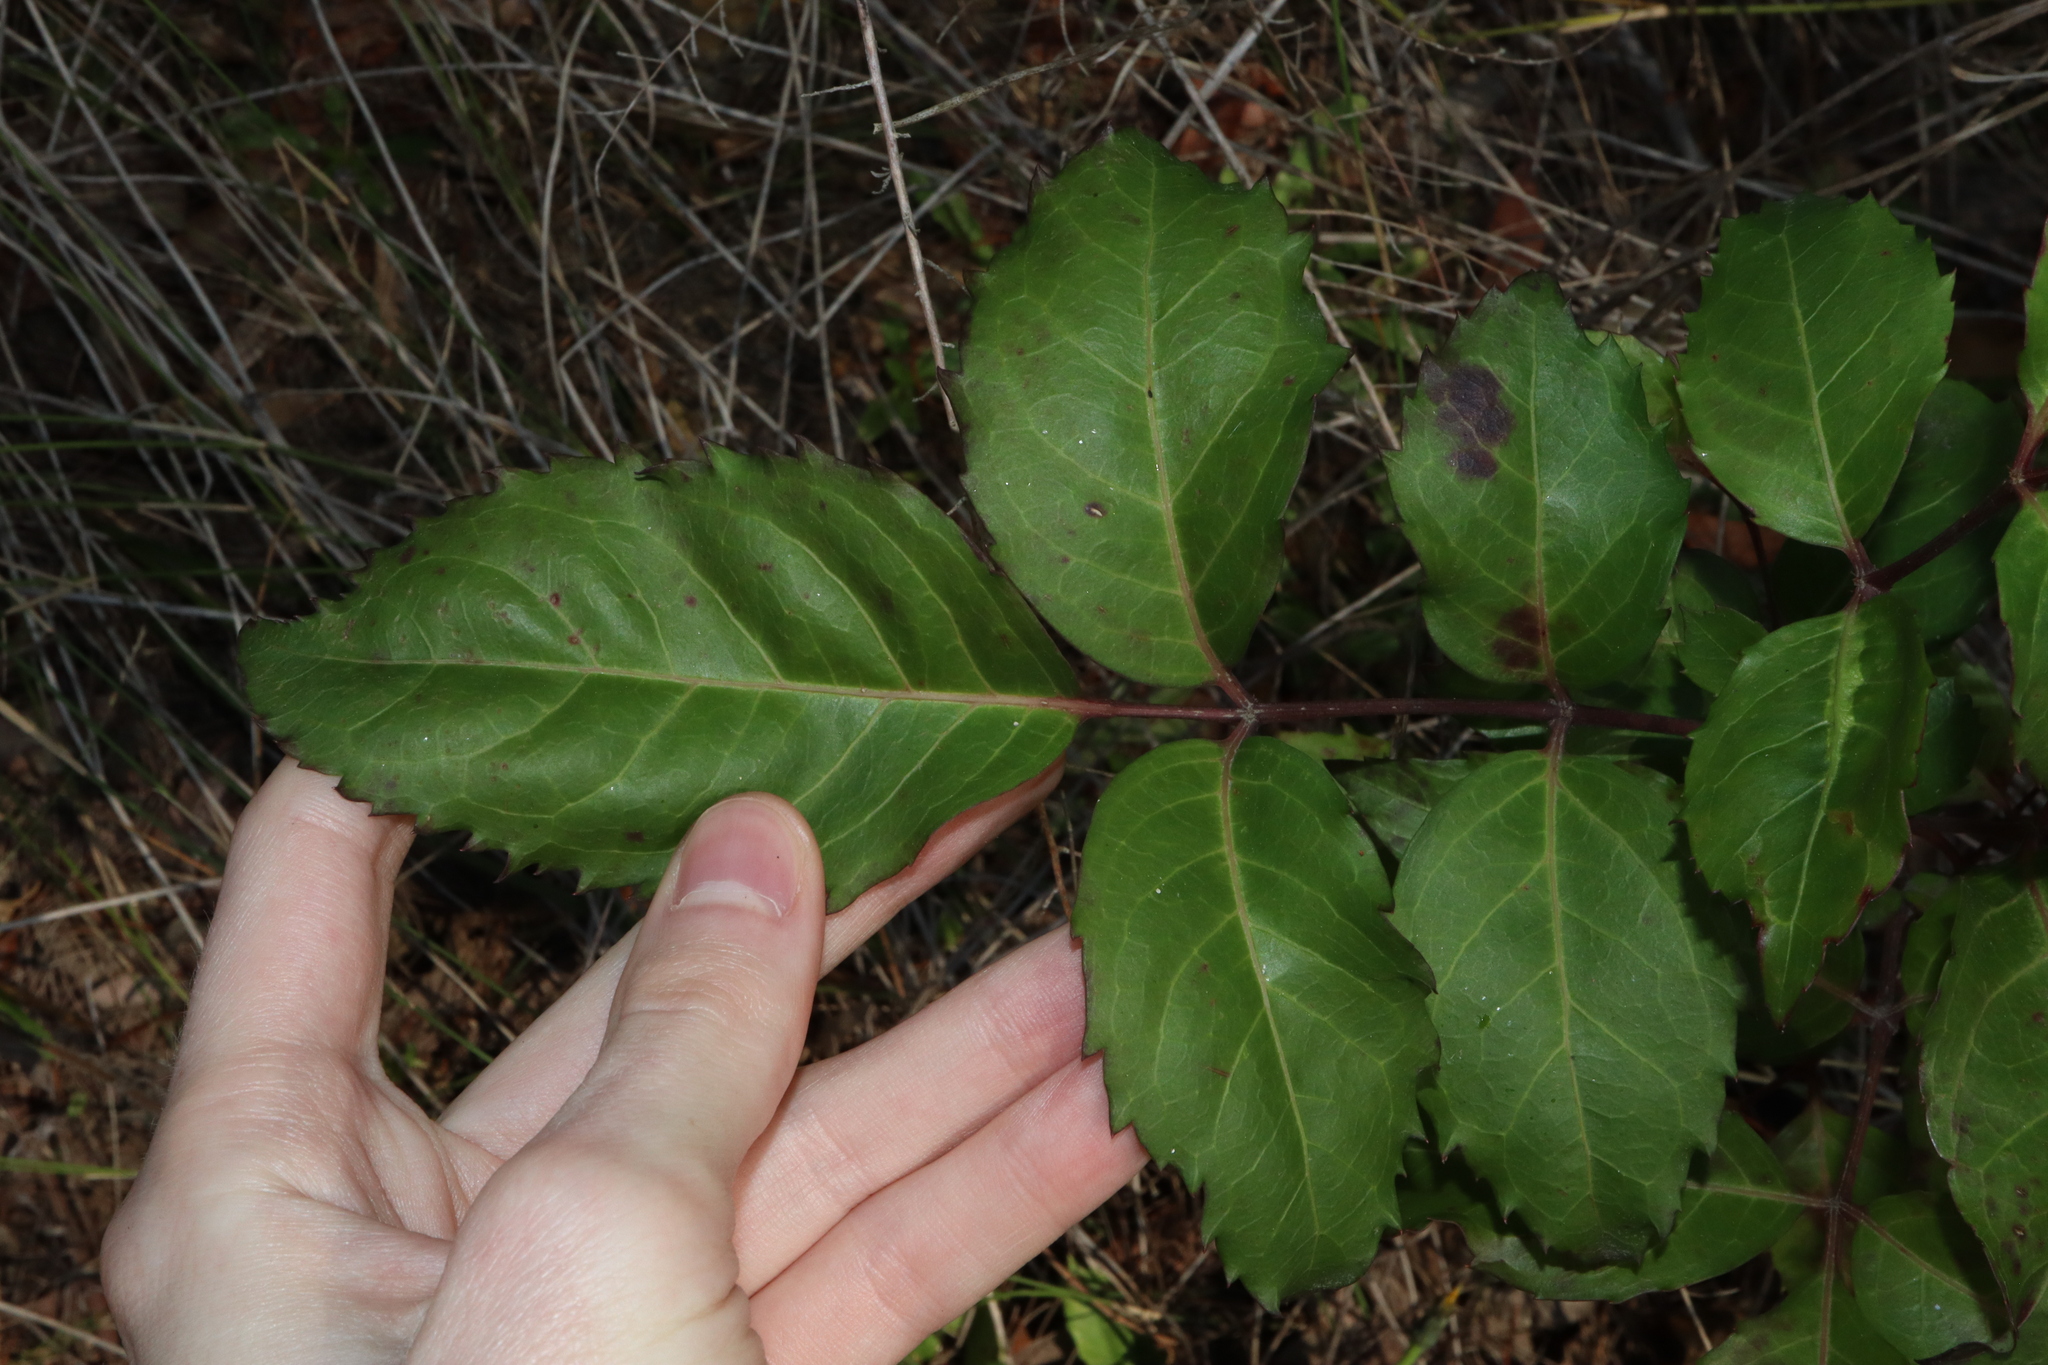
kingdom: Plantae
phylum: Tracheophyta
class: Magnoliopsida
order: Apiales
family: Araliaceae
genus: Polyscias
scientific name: Polyscias sambucifolia
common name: Elderberry-ash
